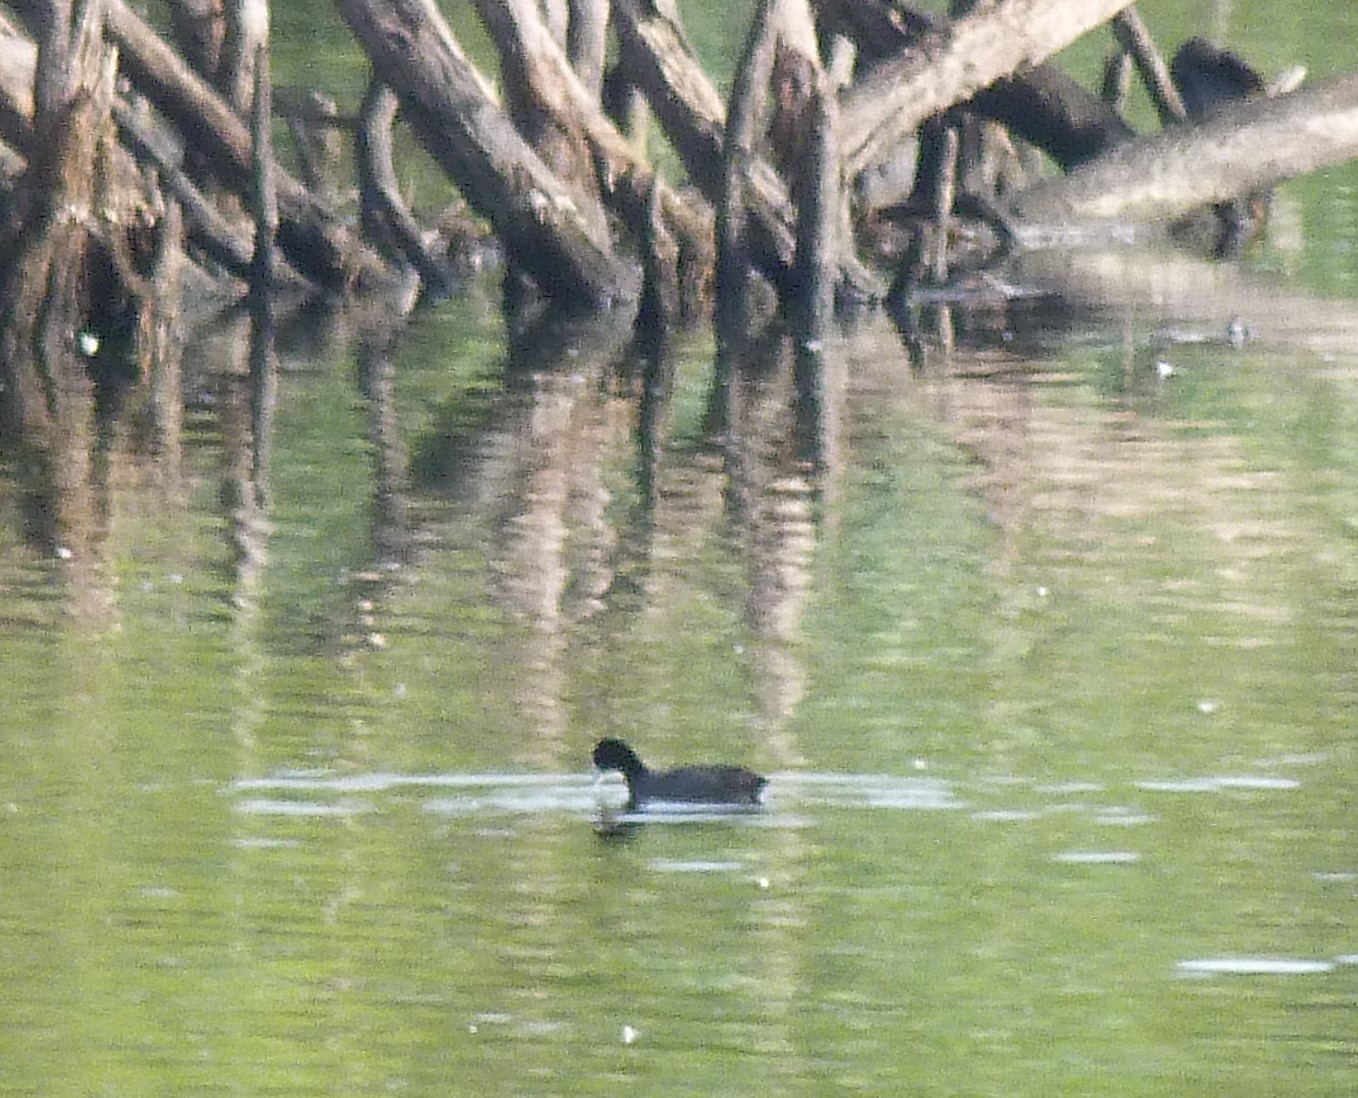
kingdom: Animalia
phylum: Chordata
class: Aves
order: Gruiformes
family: Rallidae
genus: Fulica
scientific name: Fulica atra
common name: Eurasian coot
